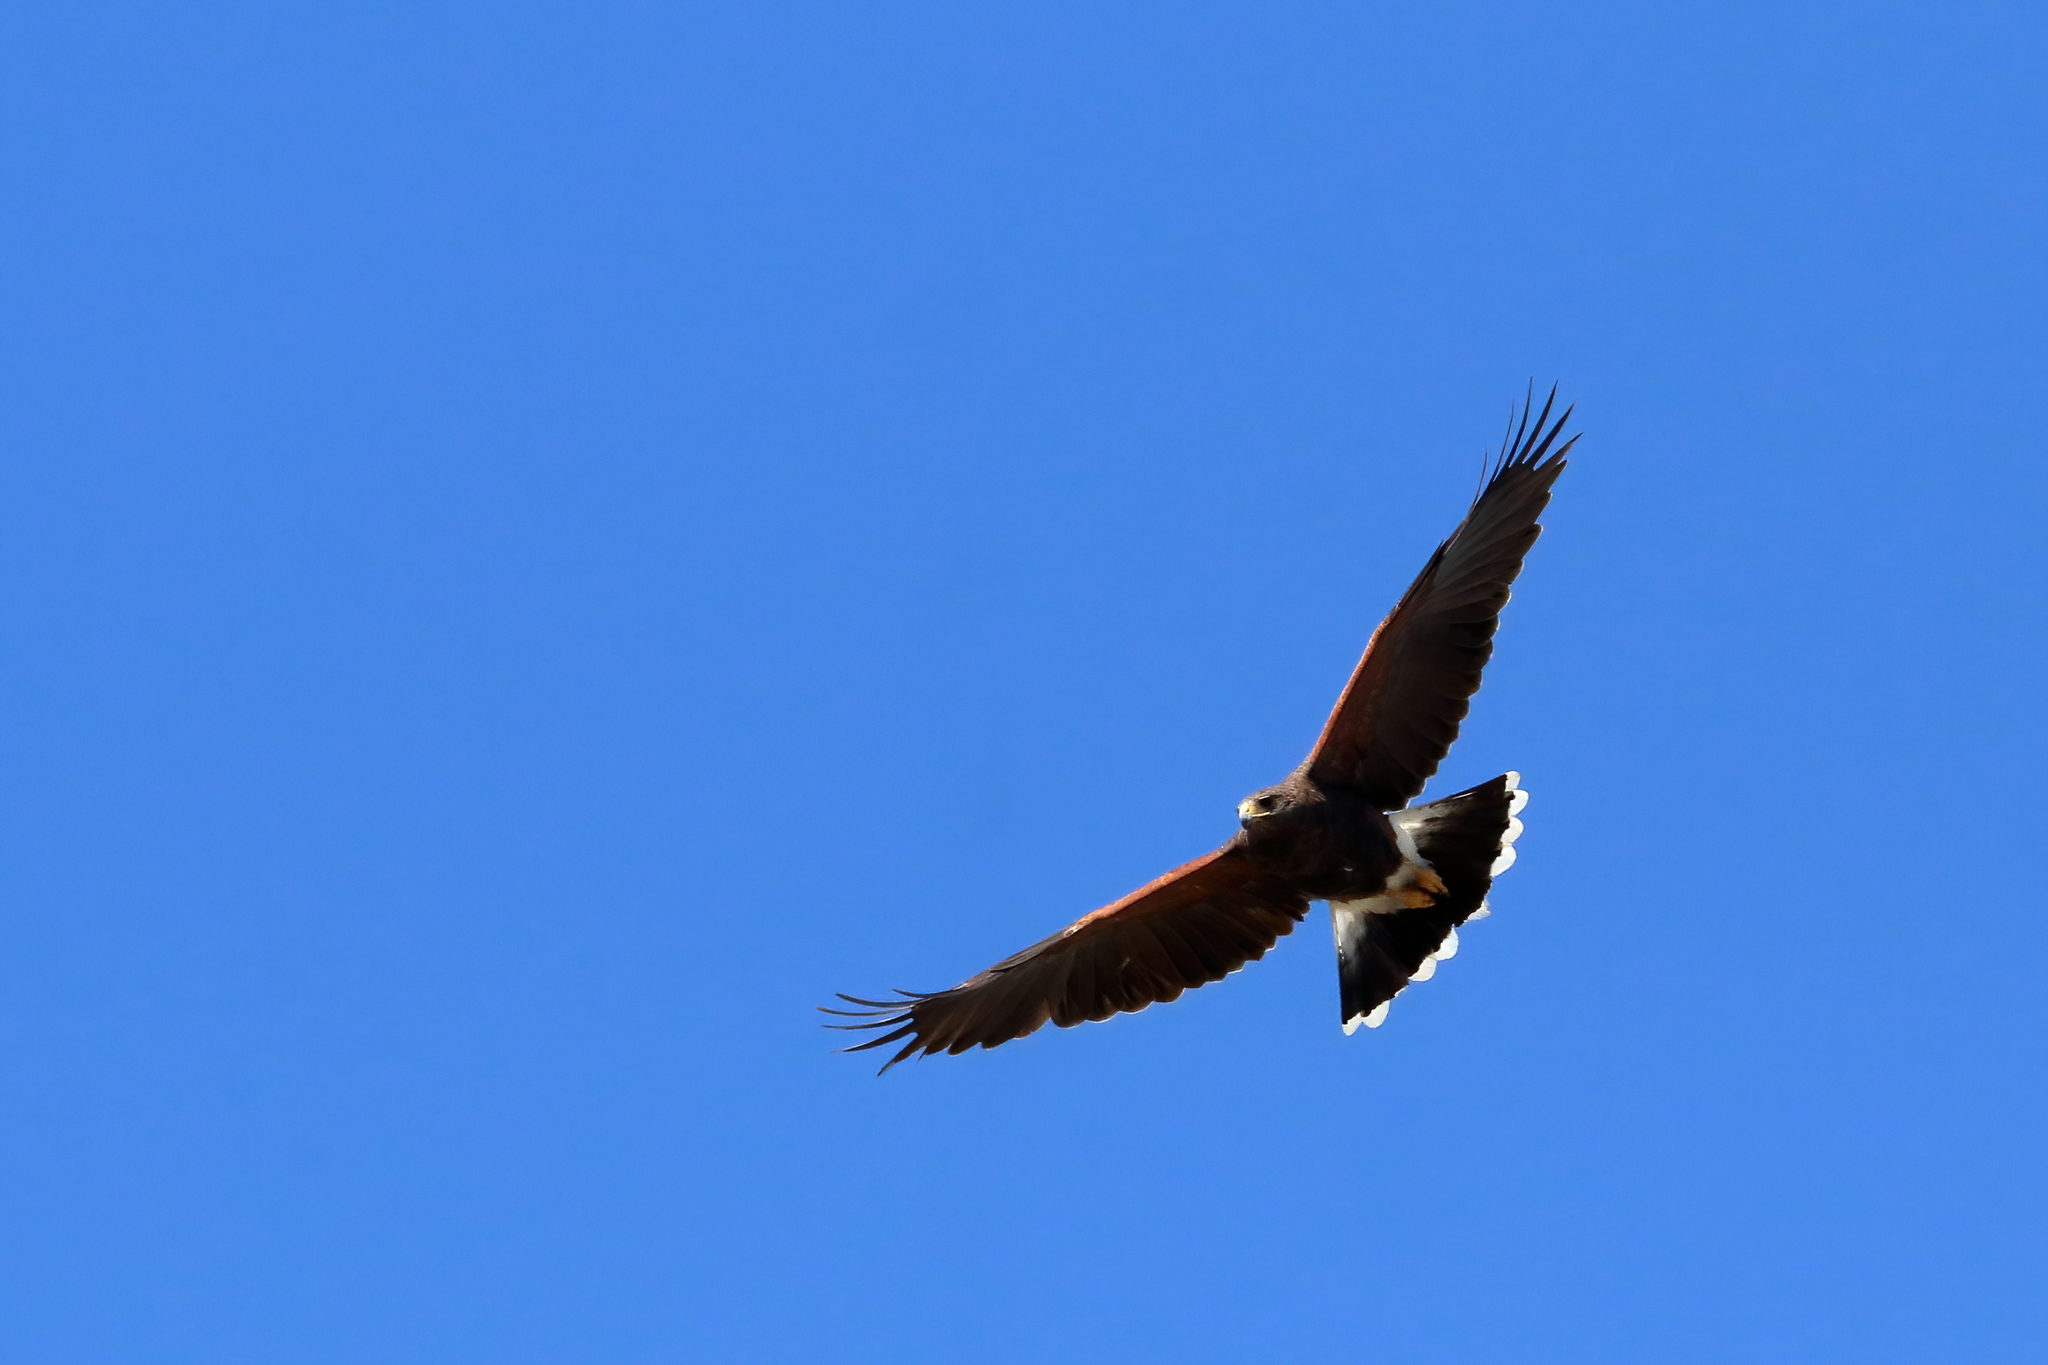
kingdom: Animalia
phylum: Chordata
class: Aves
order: Accipitriformes
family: Accipitridae
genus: Parabuteo
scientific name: Parabuteo unicinctus
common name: Harris's hawk
